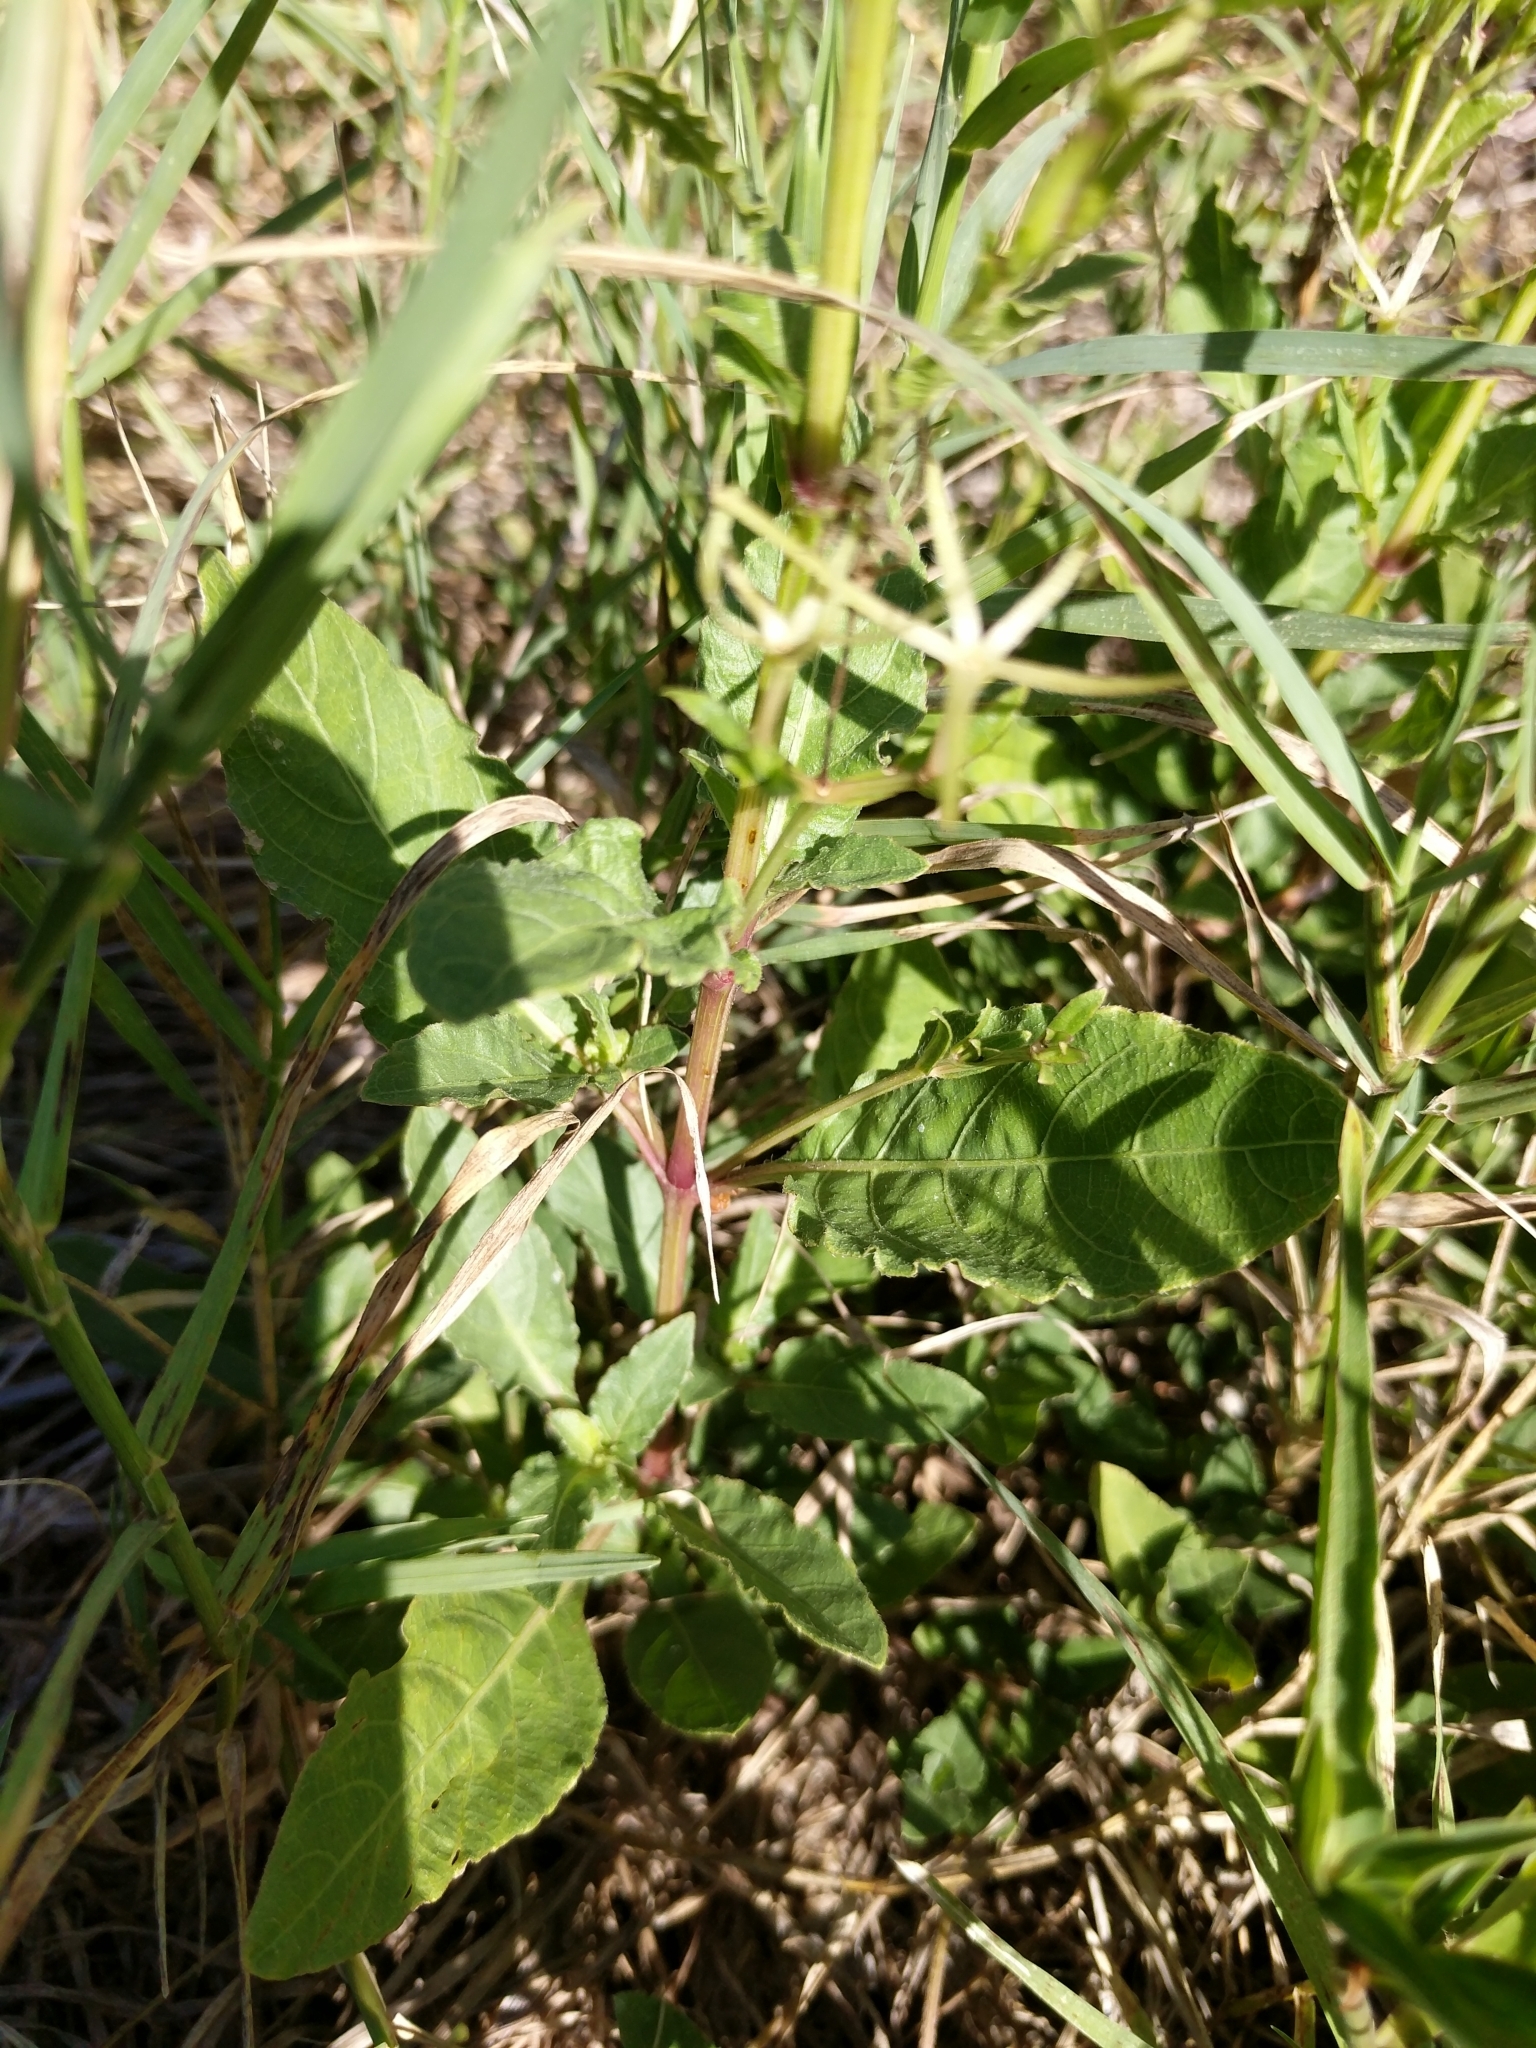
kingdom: Plantae
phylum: Tracheophyta
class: Magnoliopsida
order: Lamiales
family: Acanthaceae
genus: Ruellia
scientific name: Ruellia ciliatiflora
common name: Hairyflower wild petunia
